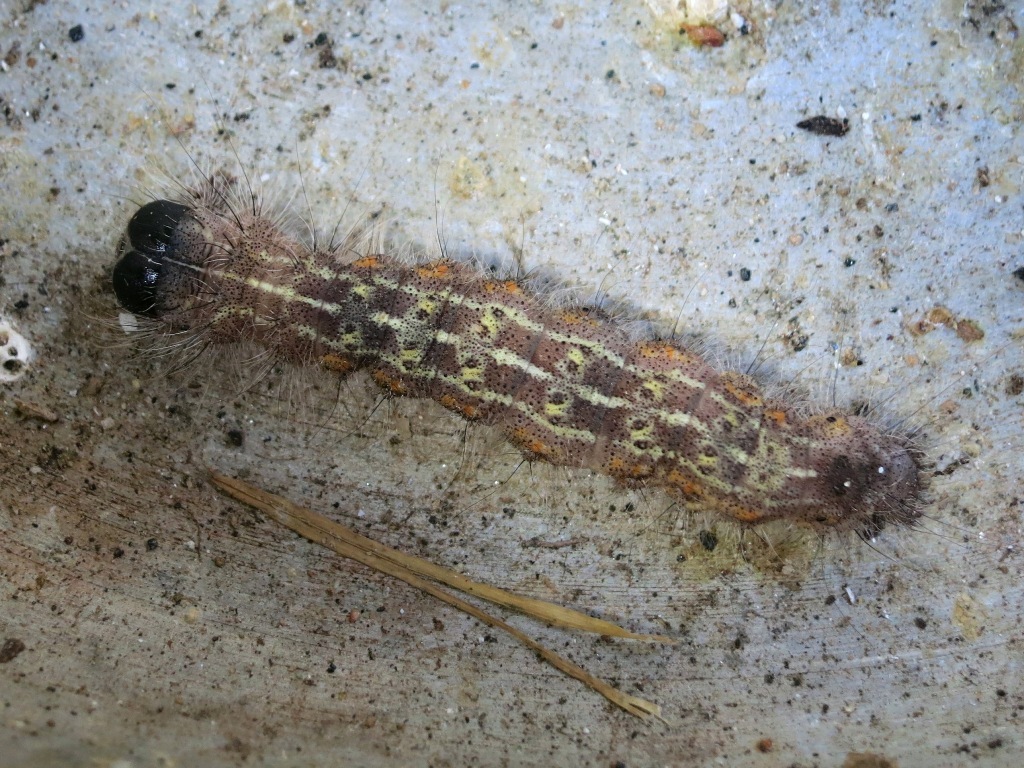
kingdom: Animalia
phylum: Arthropoda
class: Insecta
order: Lepidoptera
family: Noctuidae
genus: Acronicta
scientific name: Acronicta lobeliae
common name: Greater oak dagger
